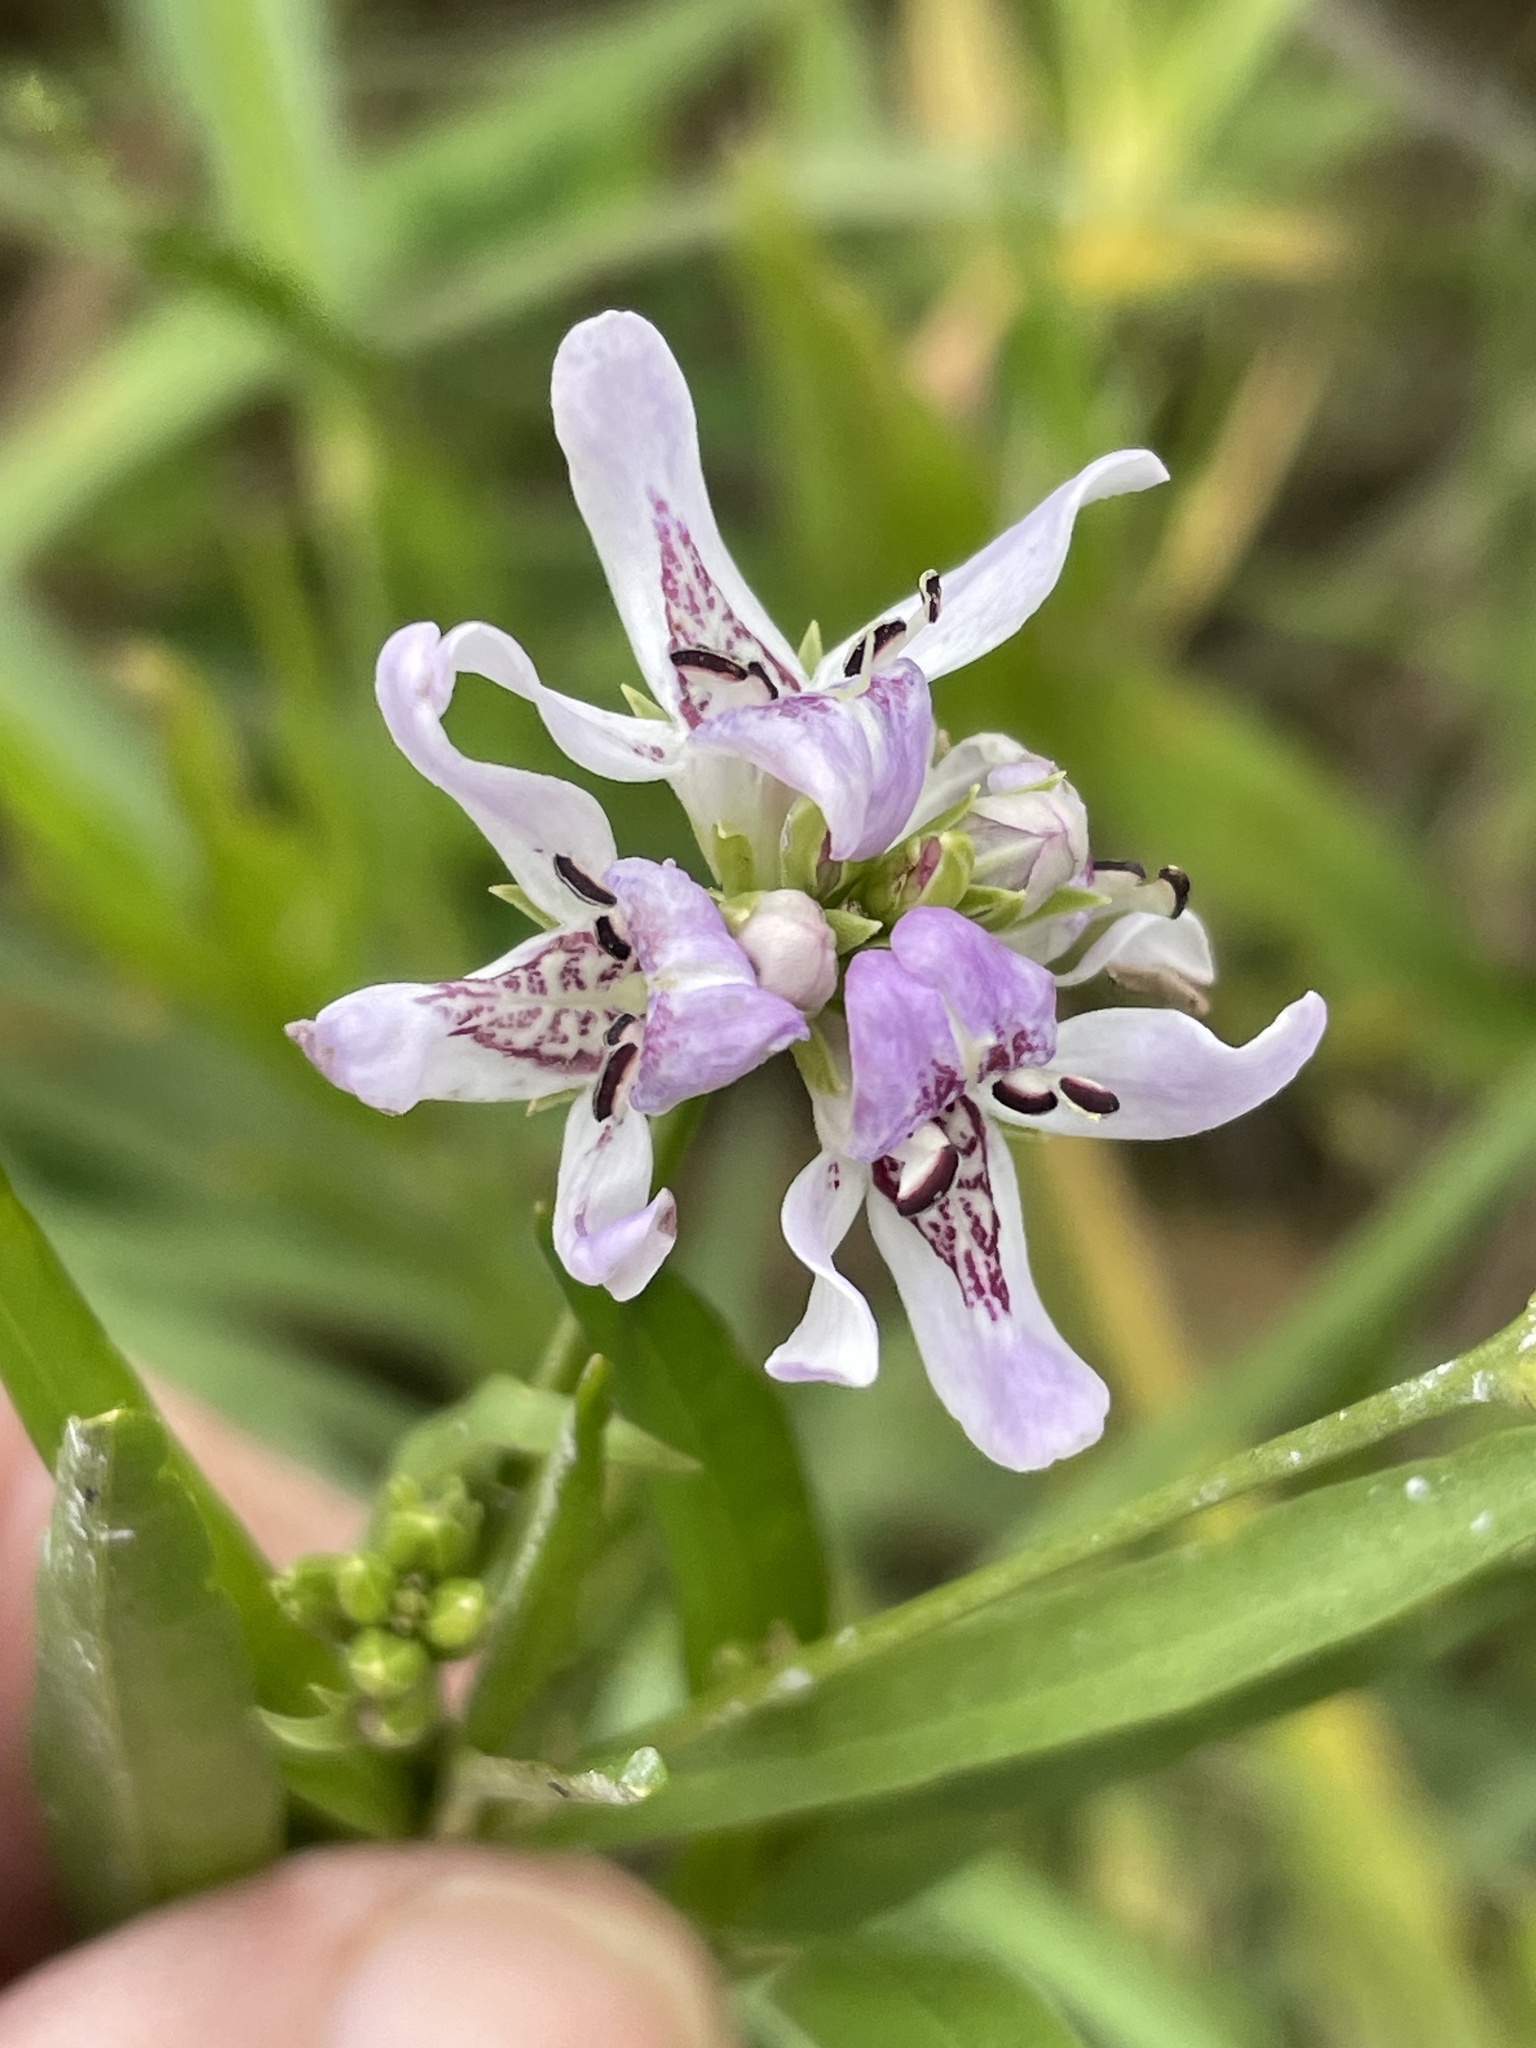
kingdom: Plantae
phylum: Tracheophyta
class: Magnoliopsida
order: Lamiales
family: Acanthaceae
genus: Dianthera
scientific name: Dianthera americana
